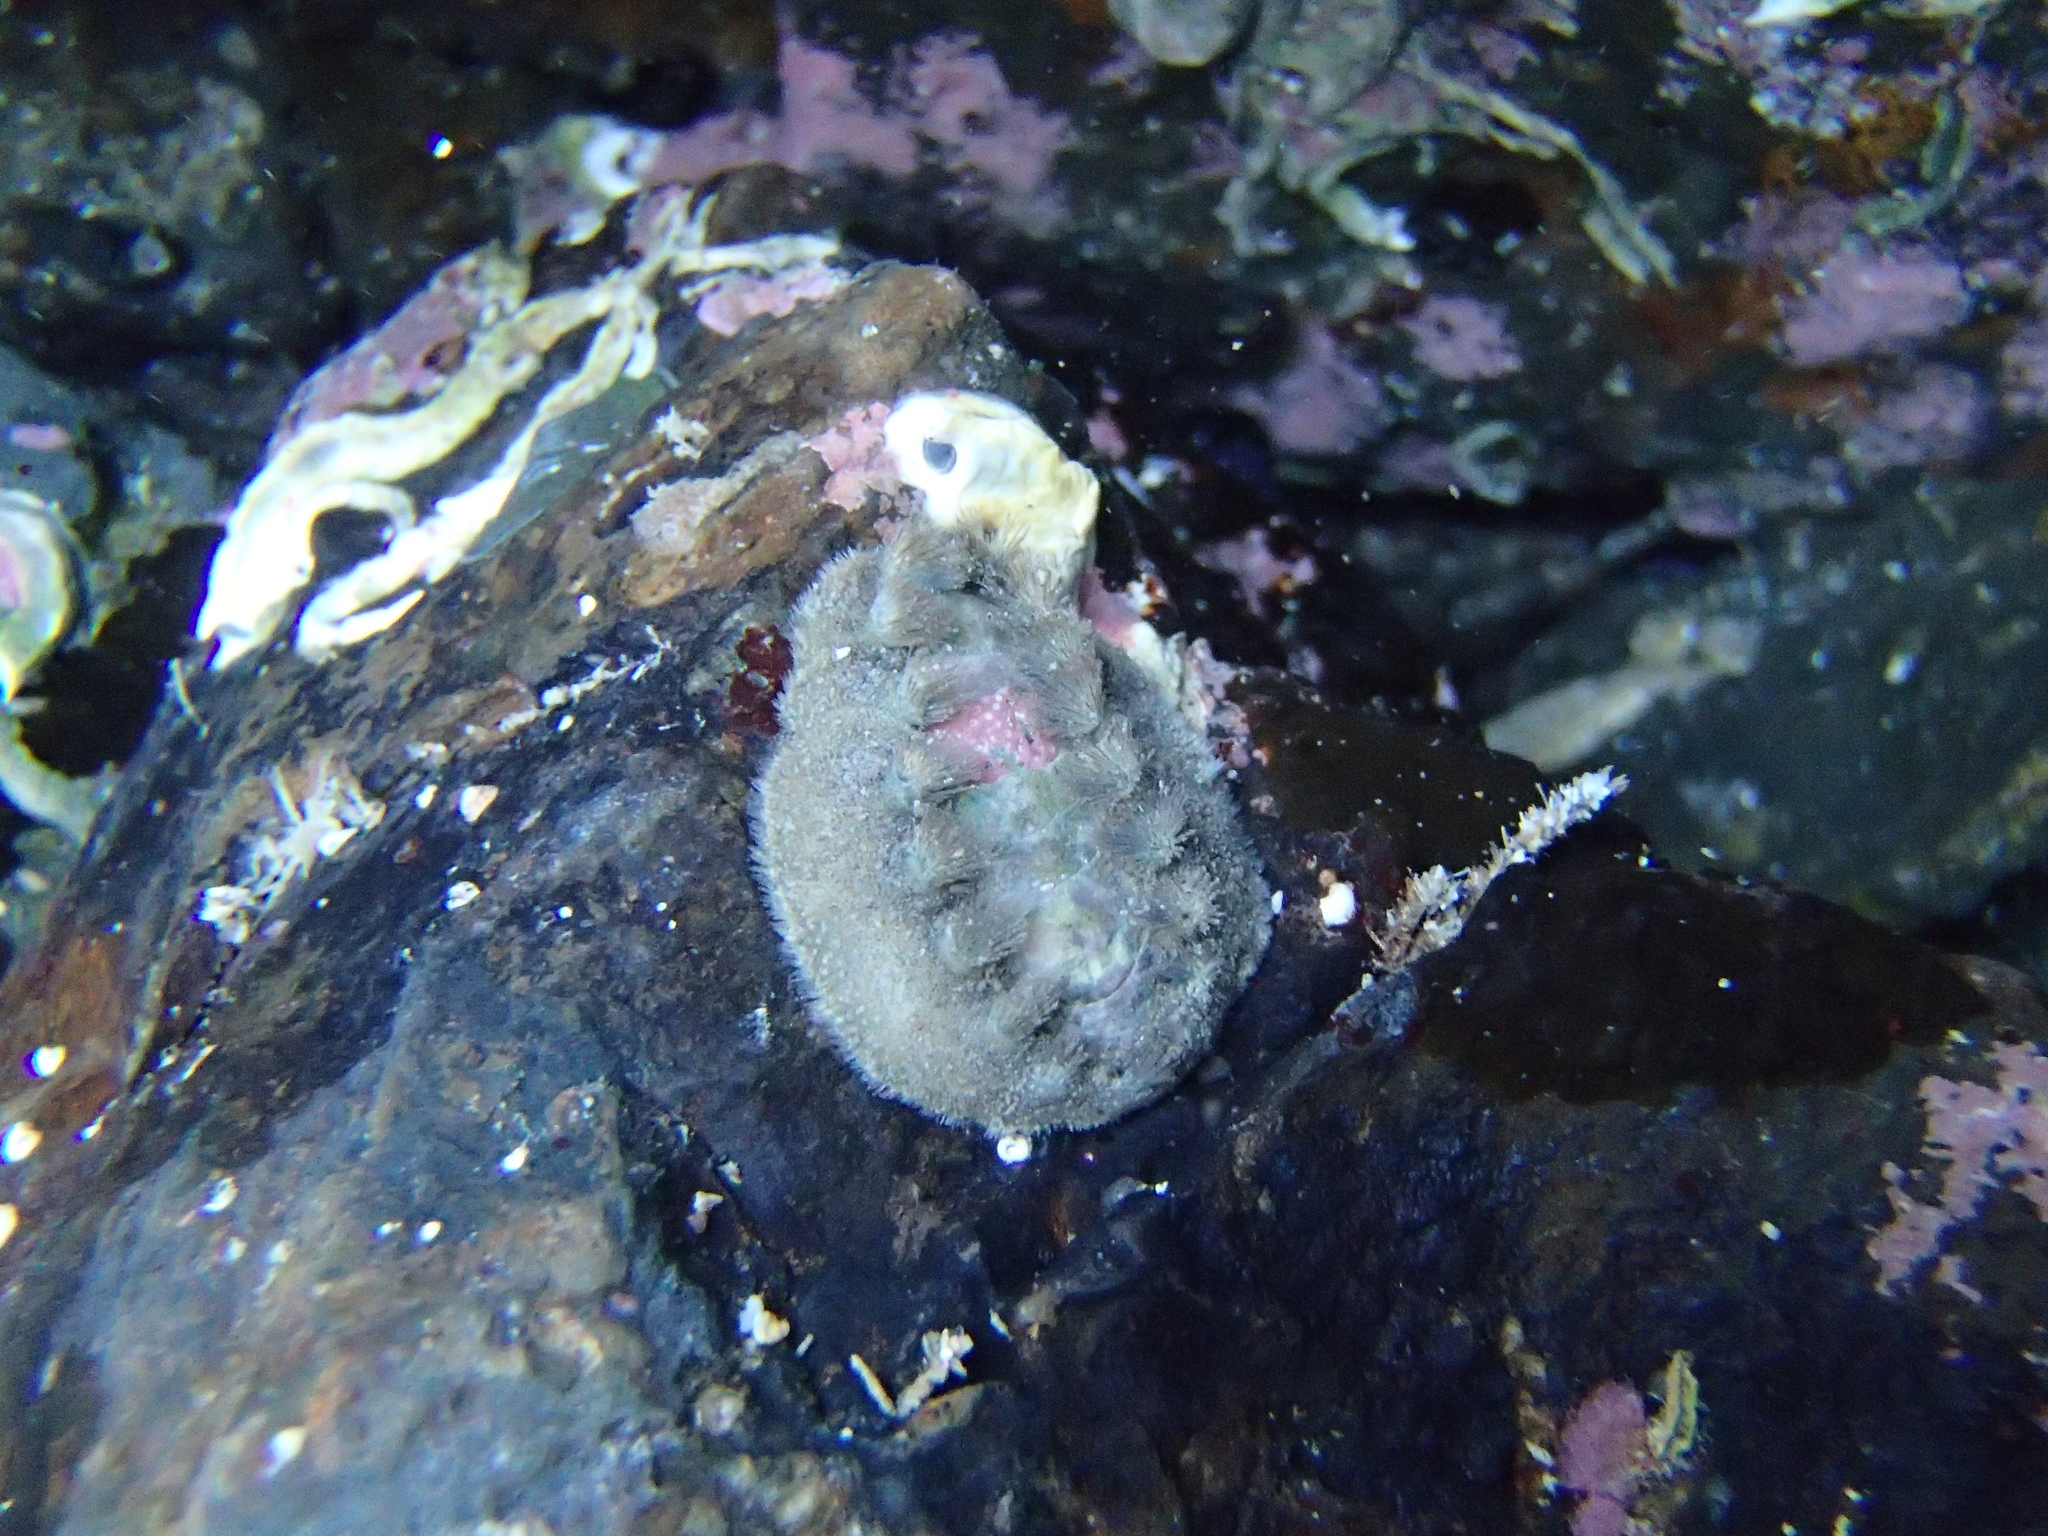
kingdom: Animalia
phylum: Mollusca
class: Polyplacophora
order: Chitonida
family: Acanthochitonidae
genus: Acanthochitona
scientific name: Acanthochitona zelandica
